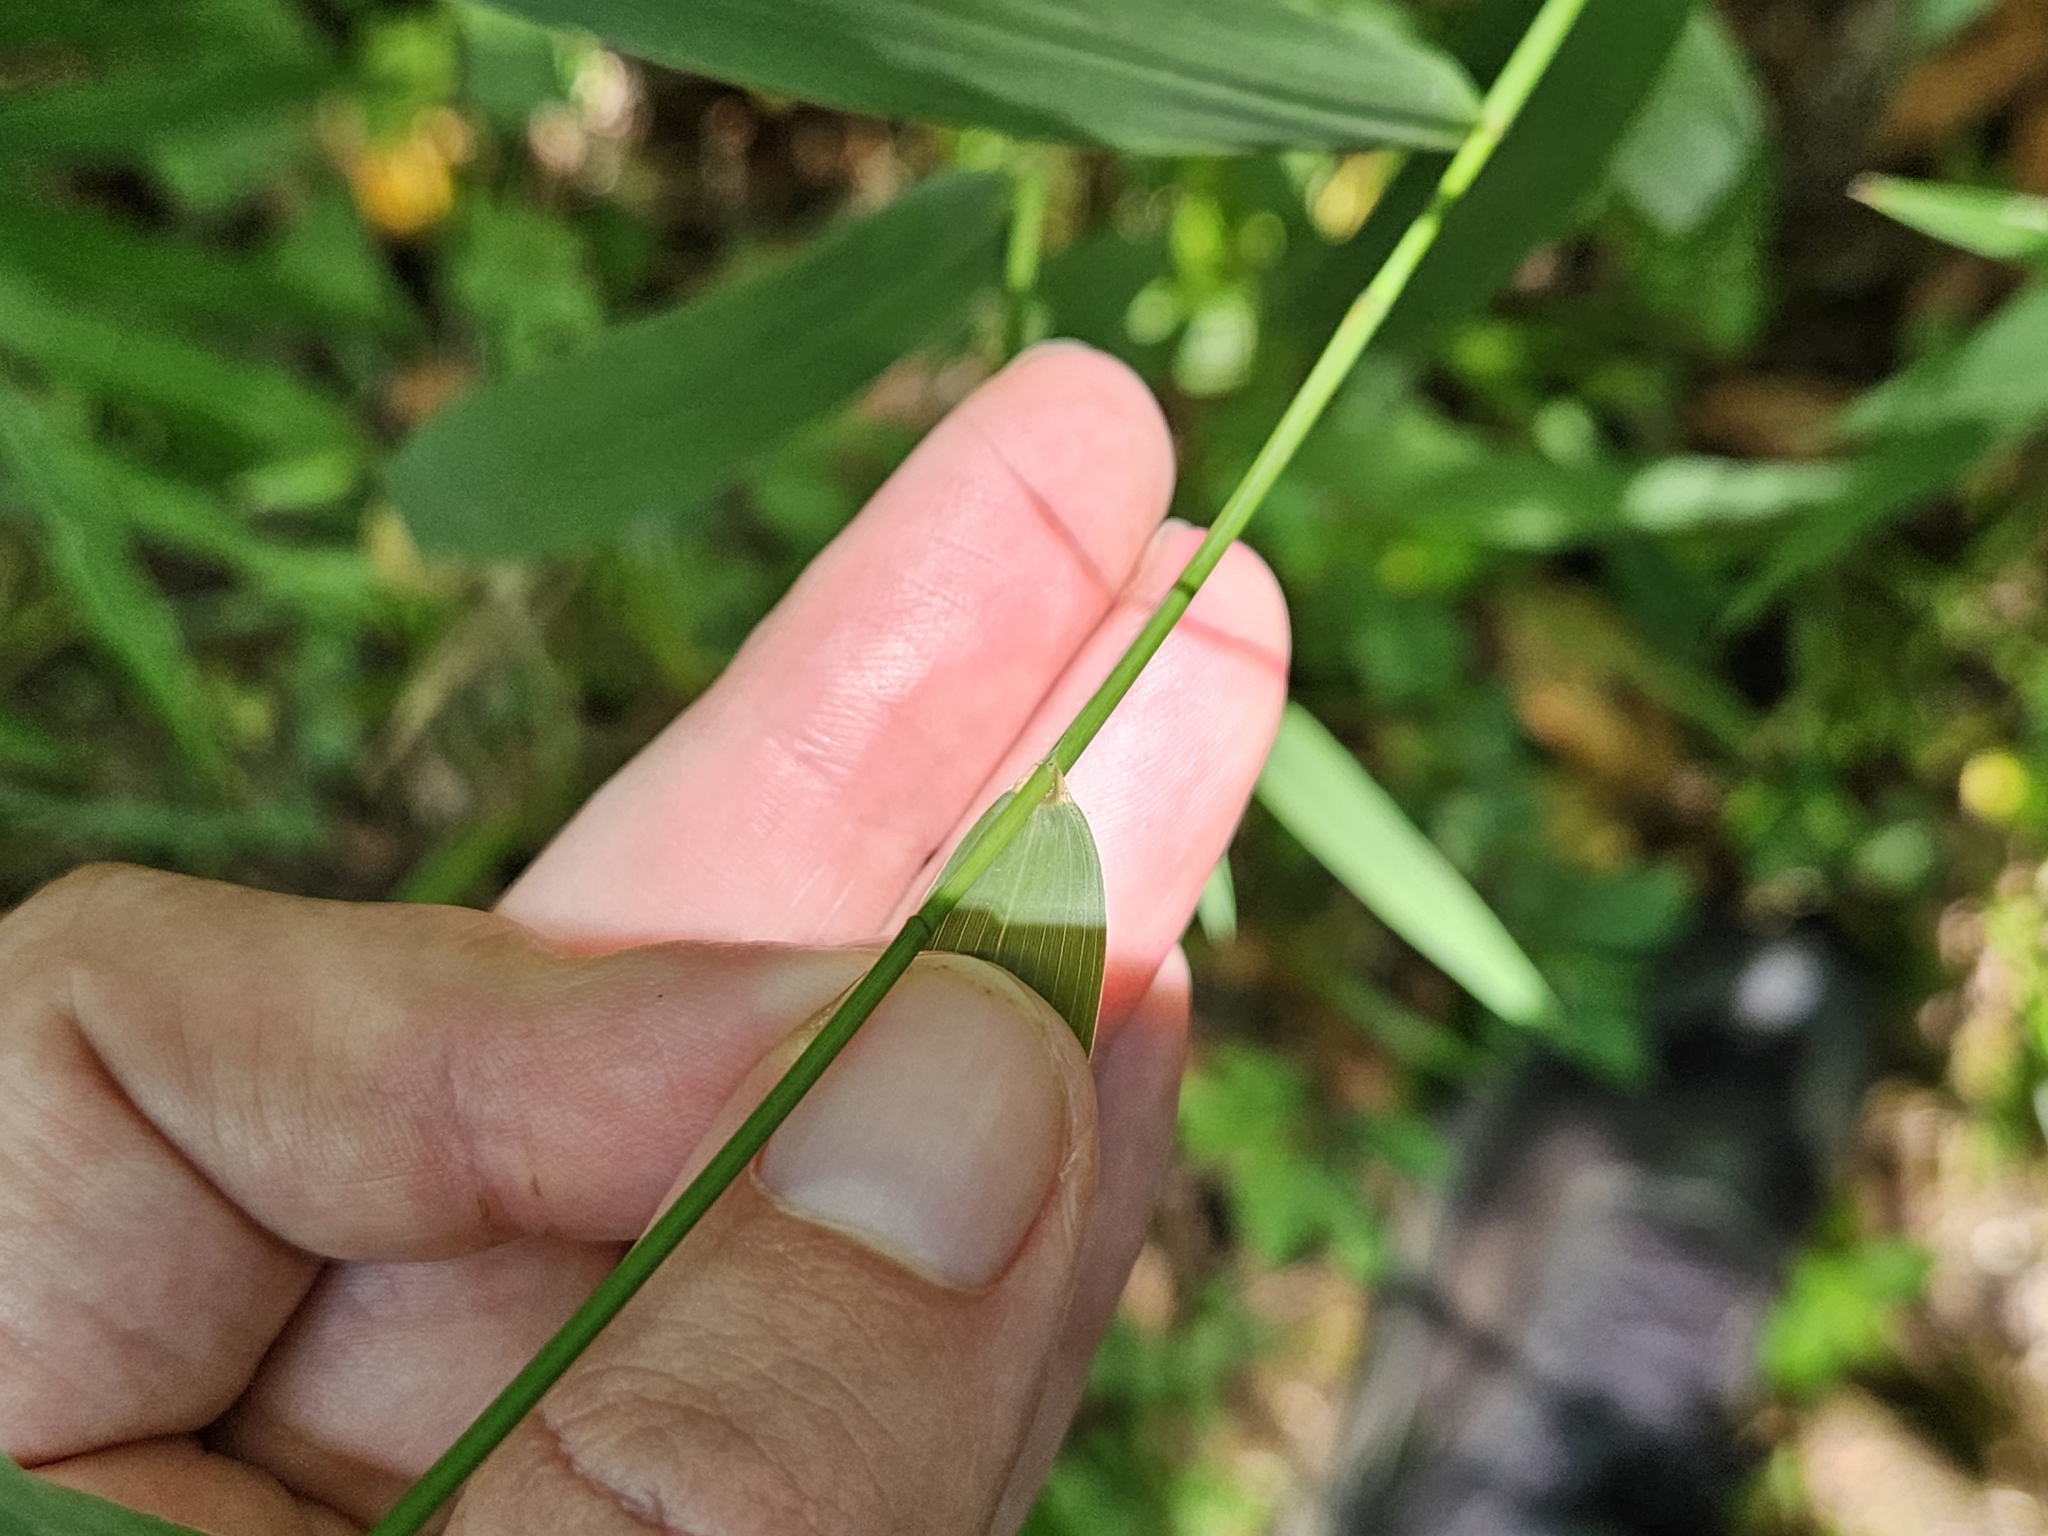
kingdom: Plantae
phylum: Tracheophyta
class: Liliopsida
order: Poales
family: Poaceae
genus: Chasmanthium
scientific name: Chasmanthium latifolium
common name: Broad-leaved chasmanthium
